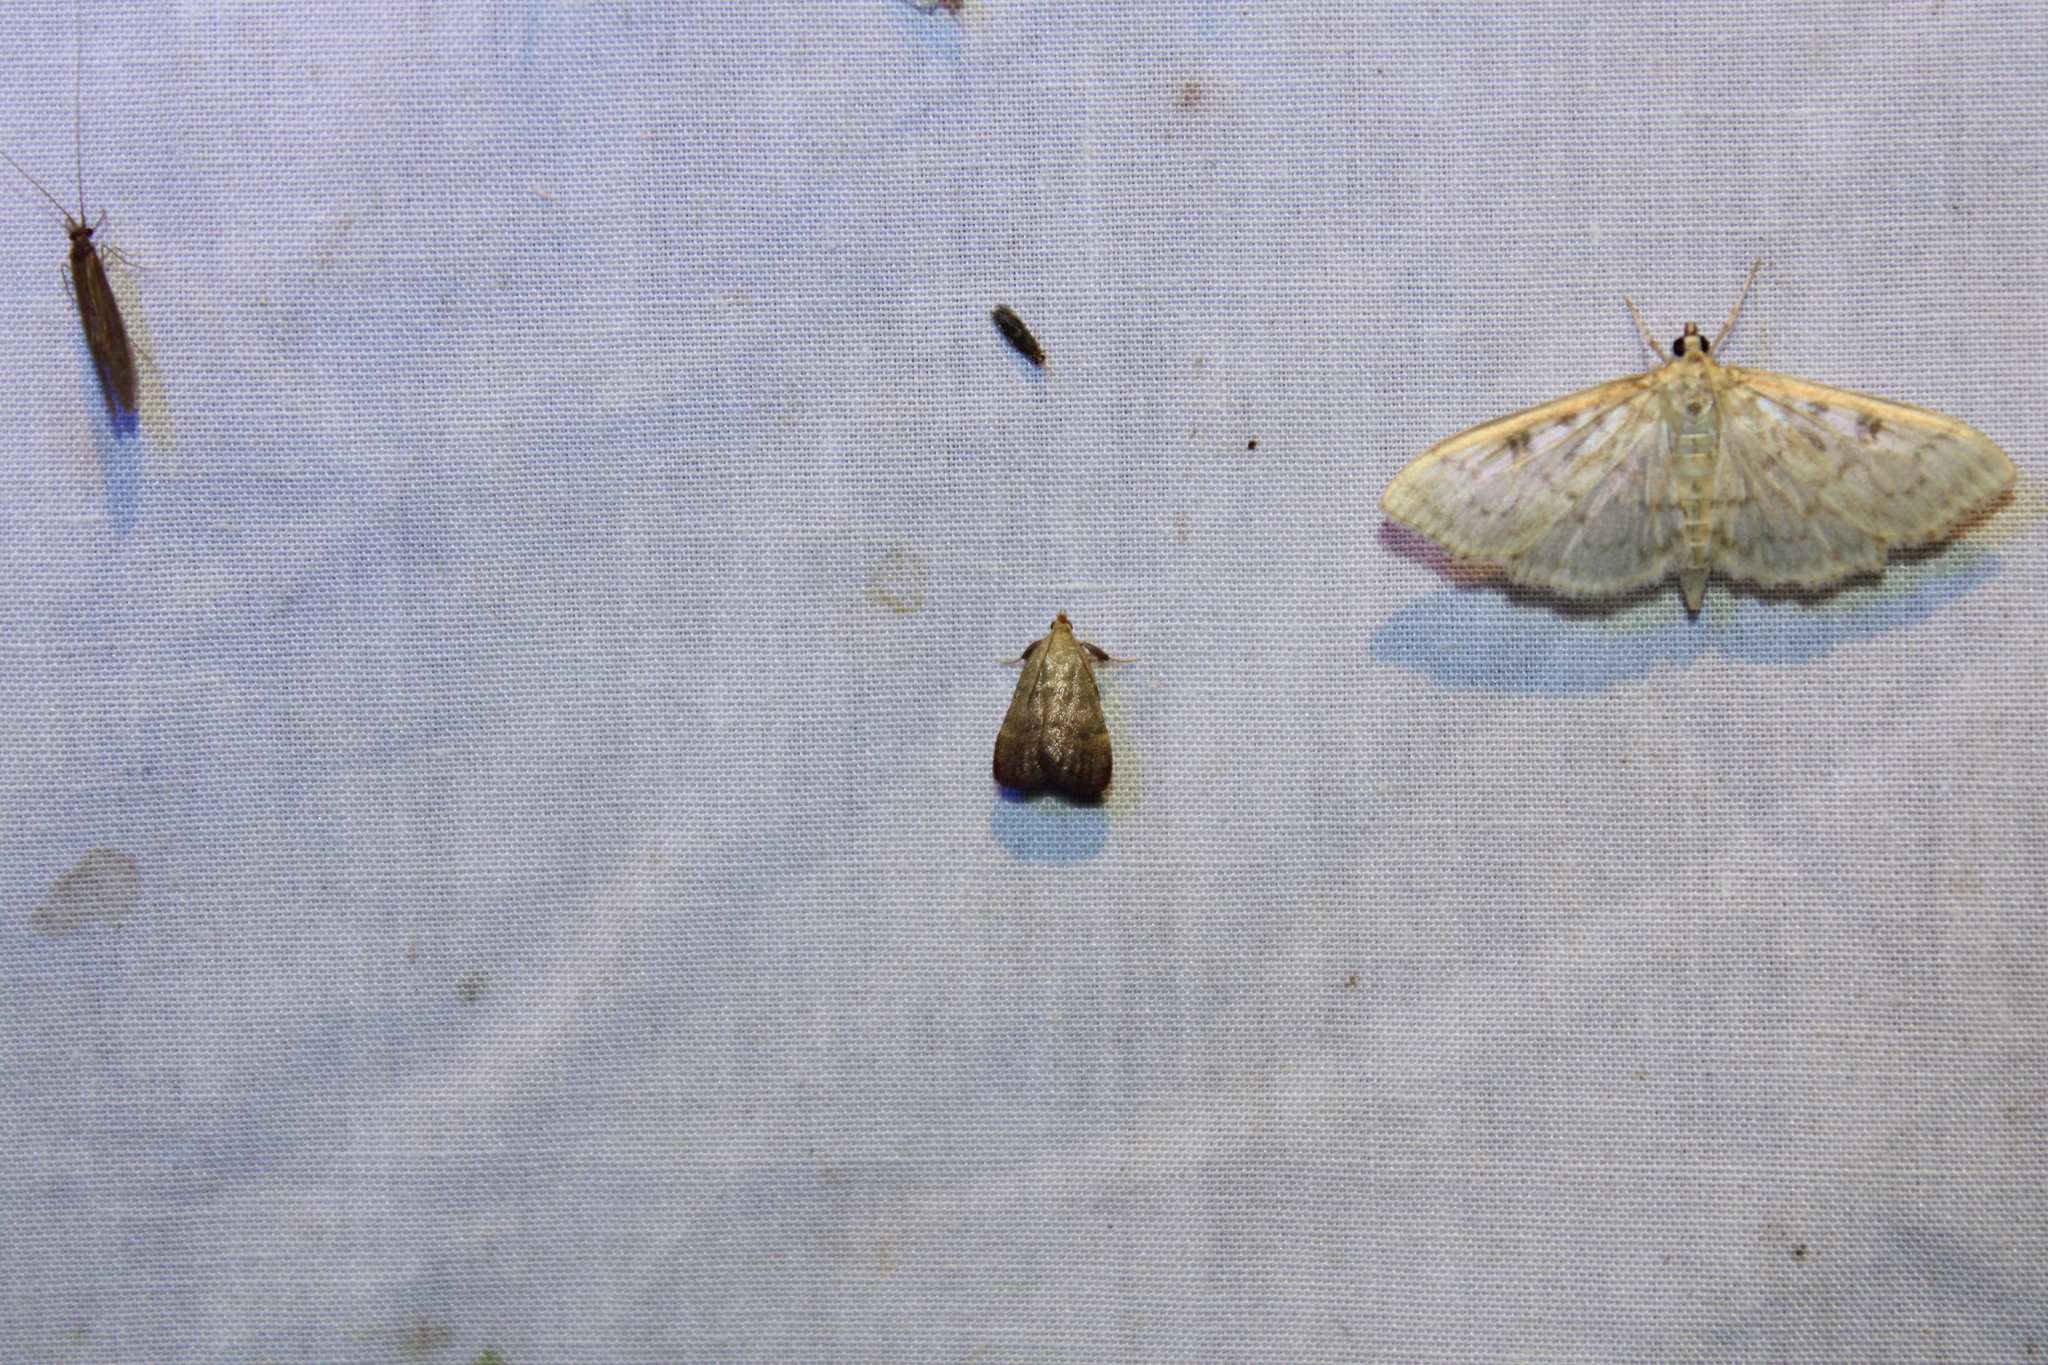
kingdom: Animalia
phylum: Arthropoda
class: Insecta
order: Lepidoptera
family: Pyralidae
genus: Condylolomia
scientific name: Condylolomia participialis
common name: Drab condylolomia moth
